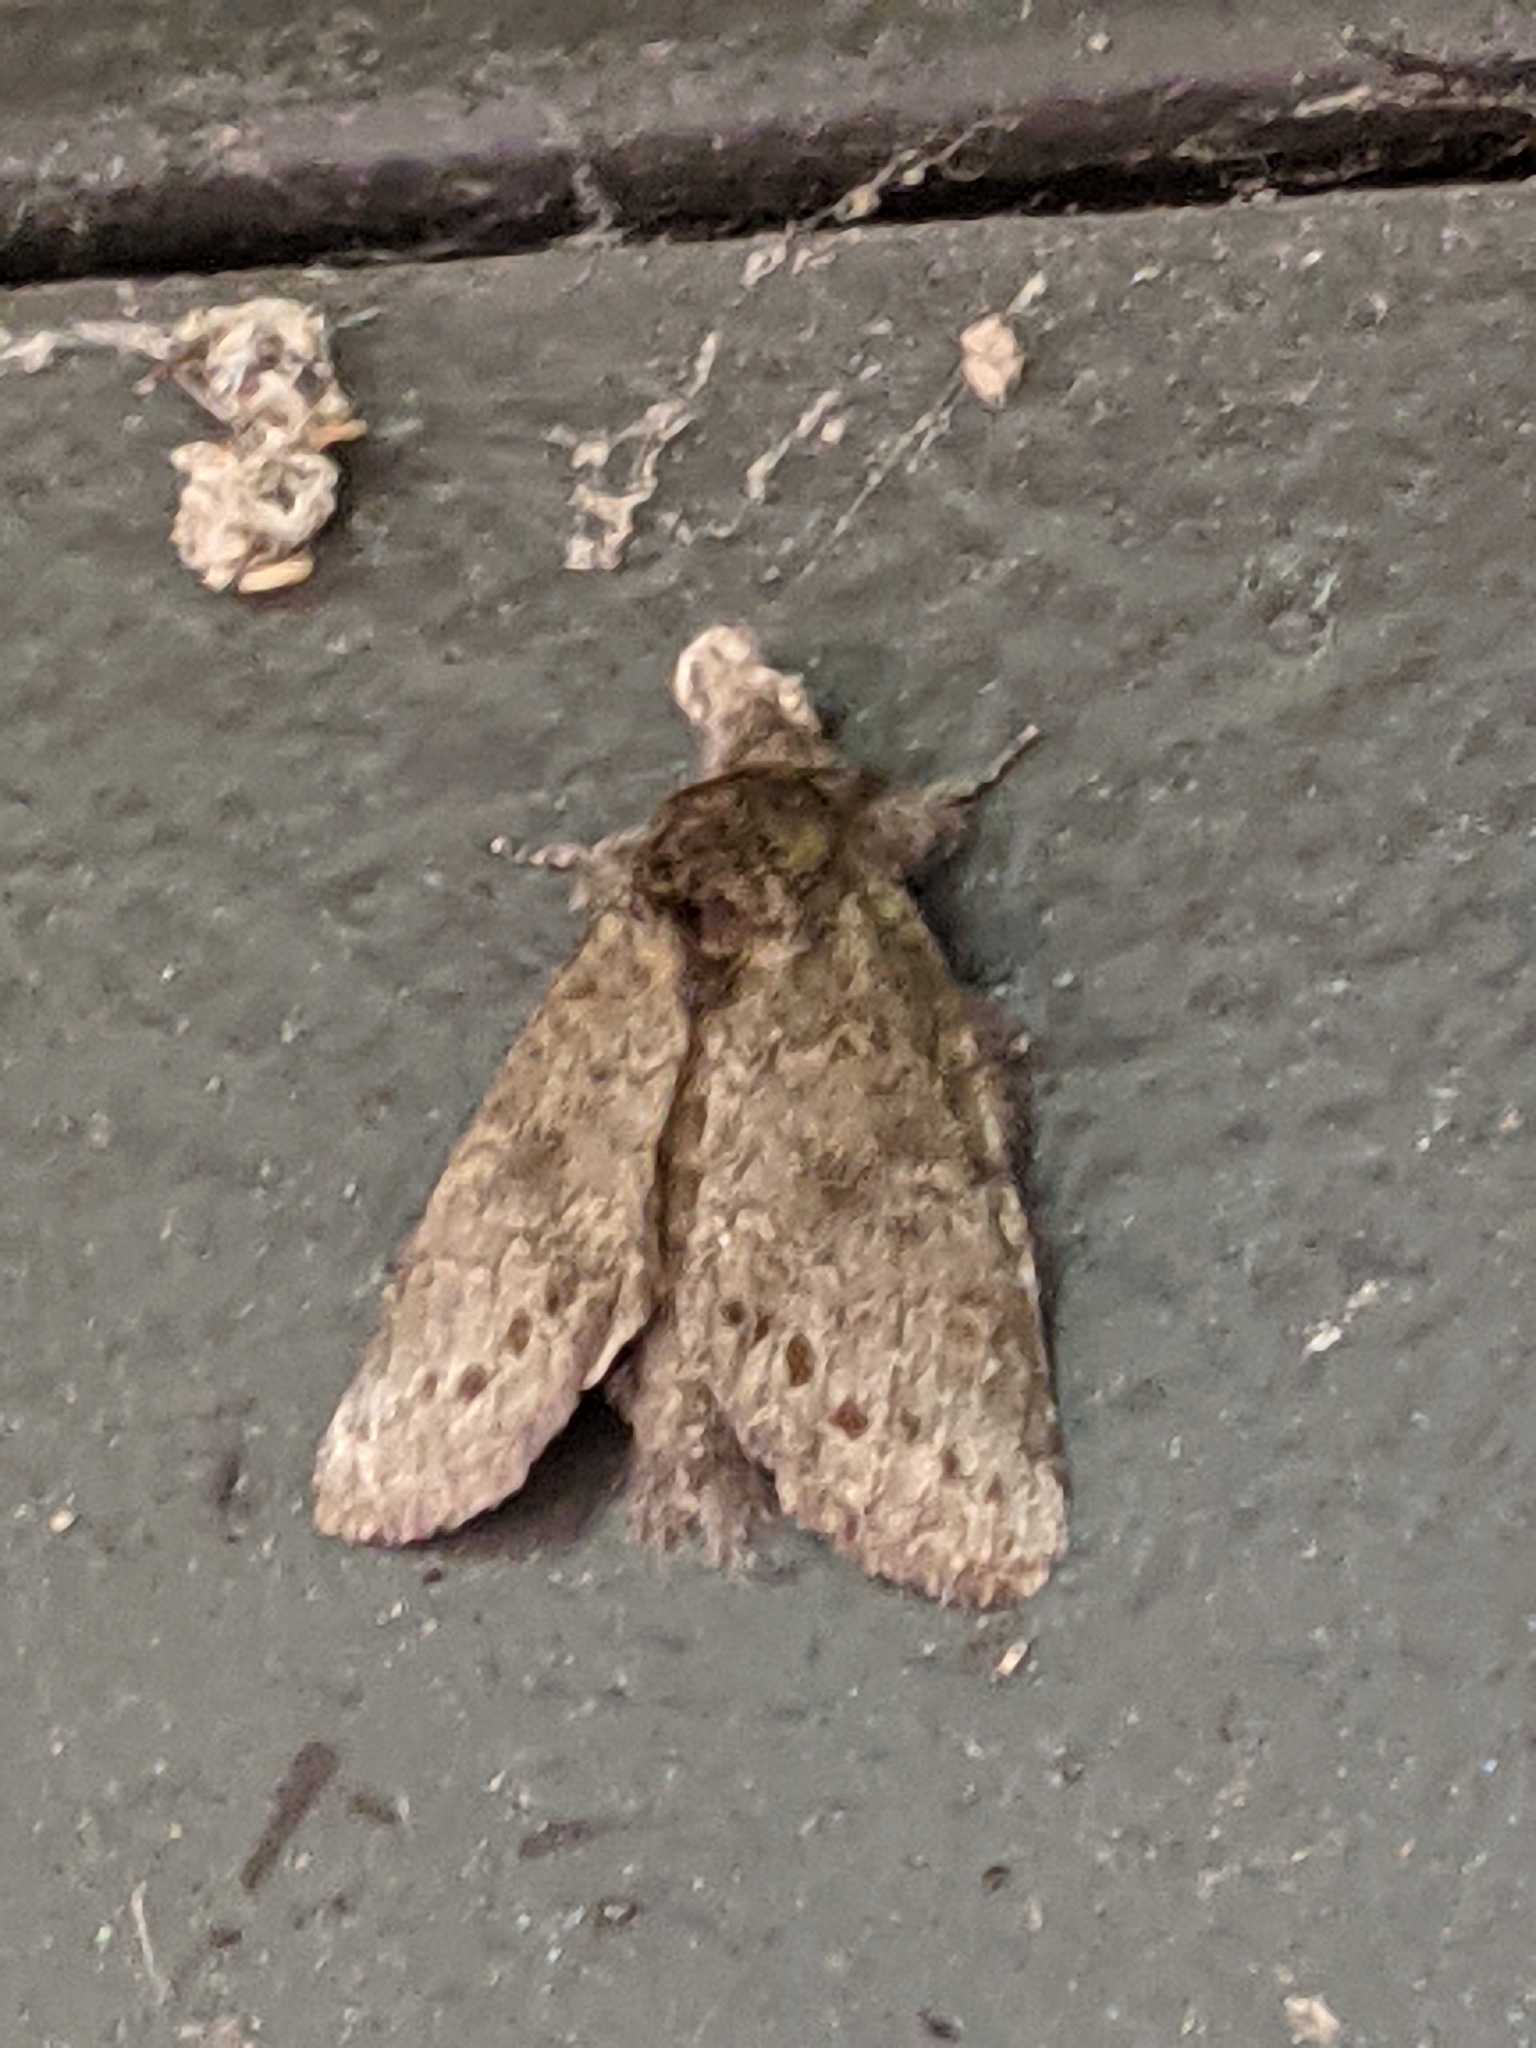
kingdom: Animalia
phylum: Arthropoda
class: Insecta
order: Lepidoptera
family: Notodontidae
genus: Disphragis
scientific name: Disphragis Cecrita guttivitta
